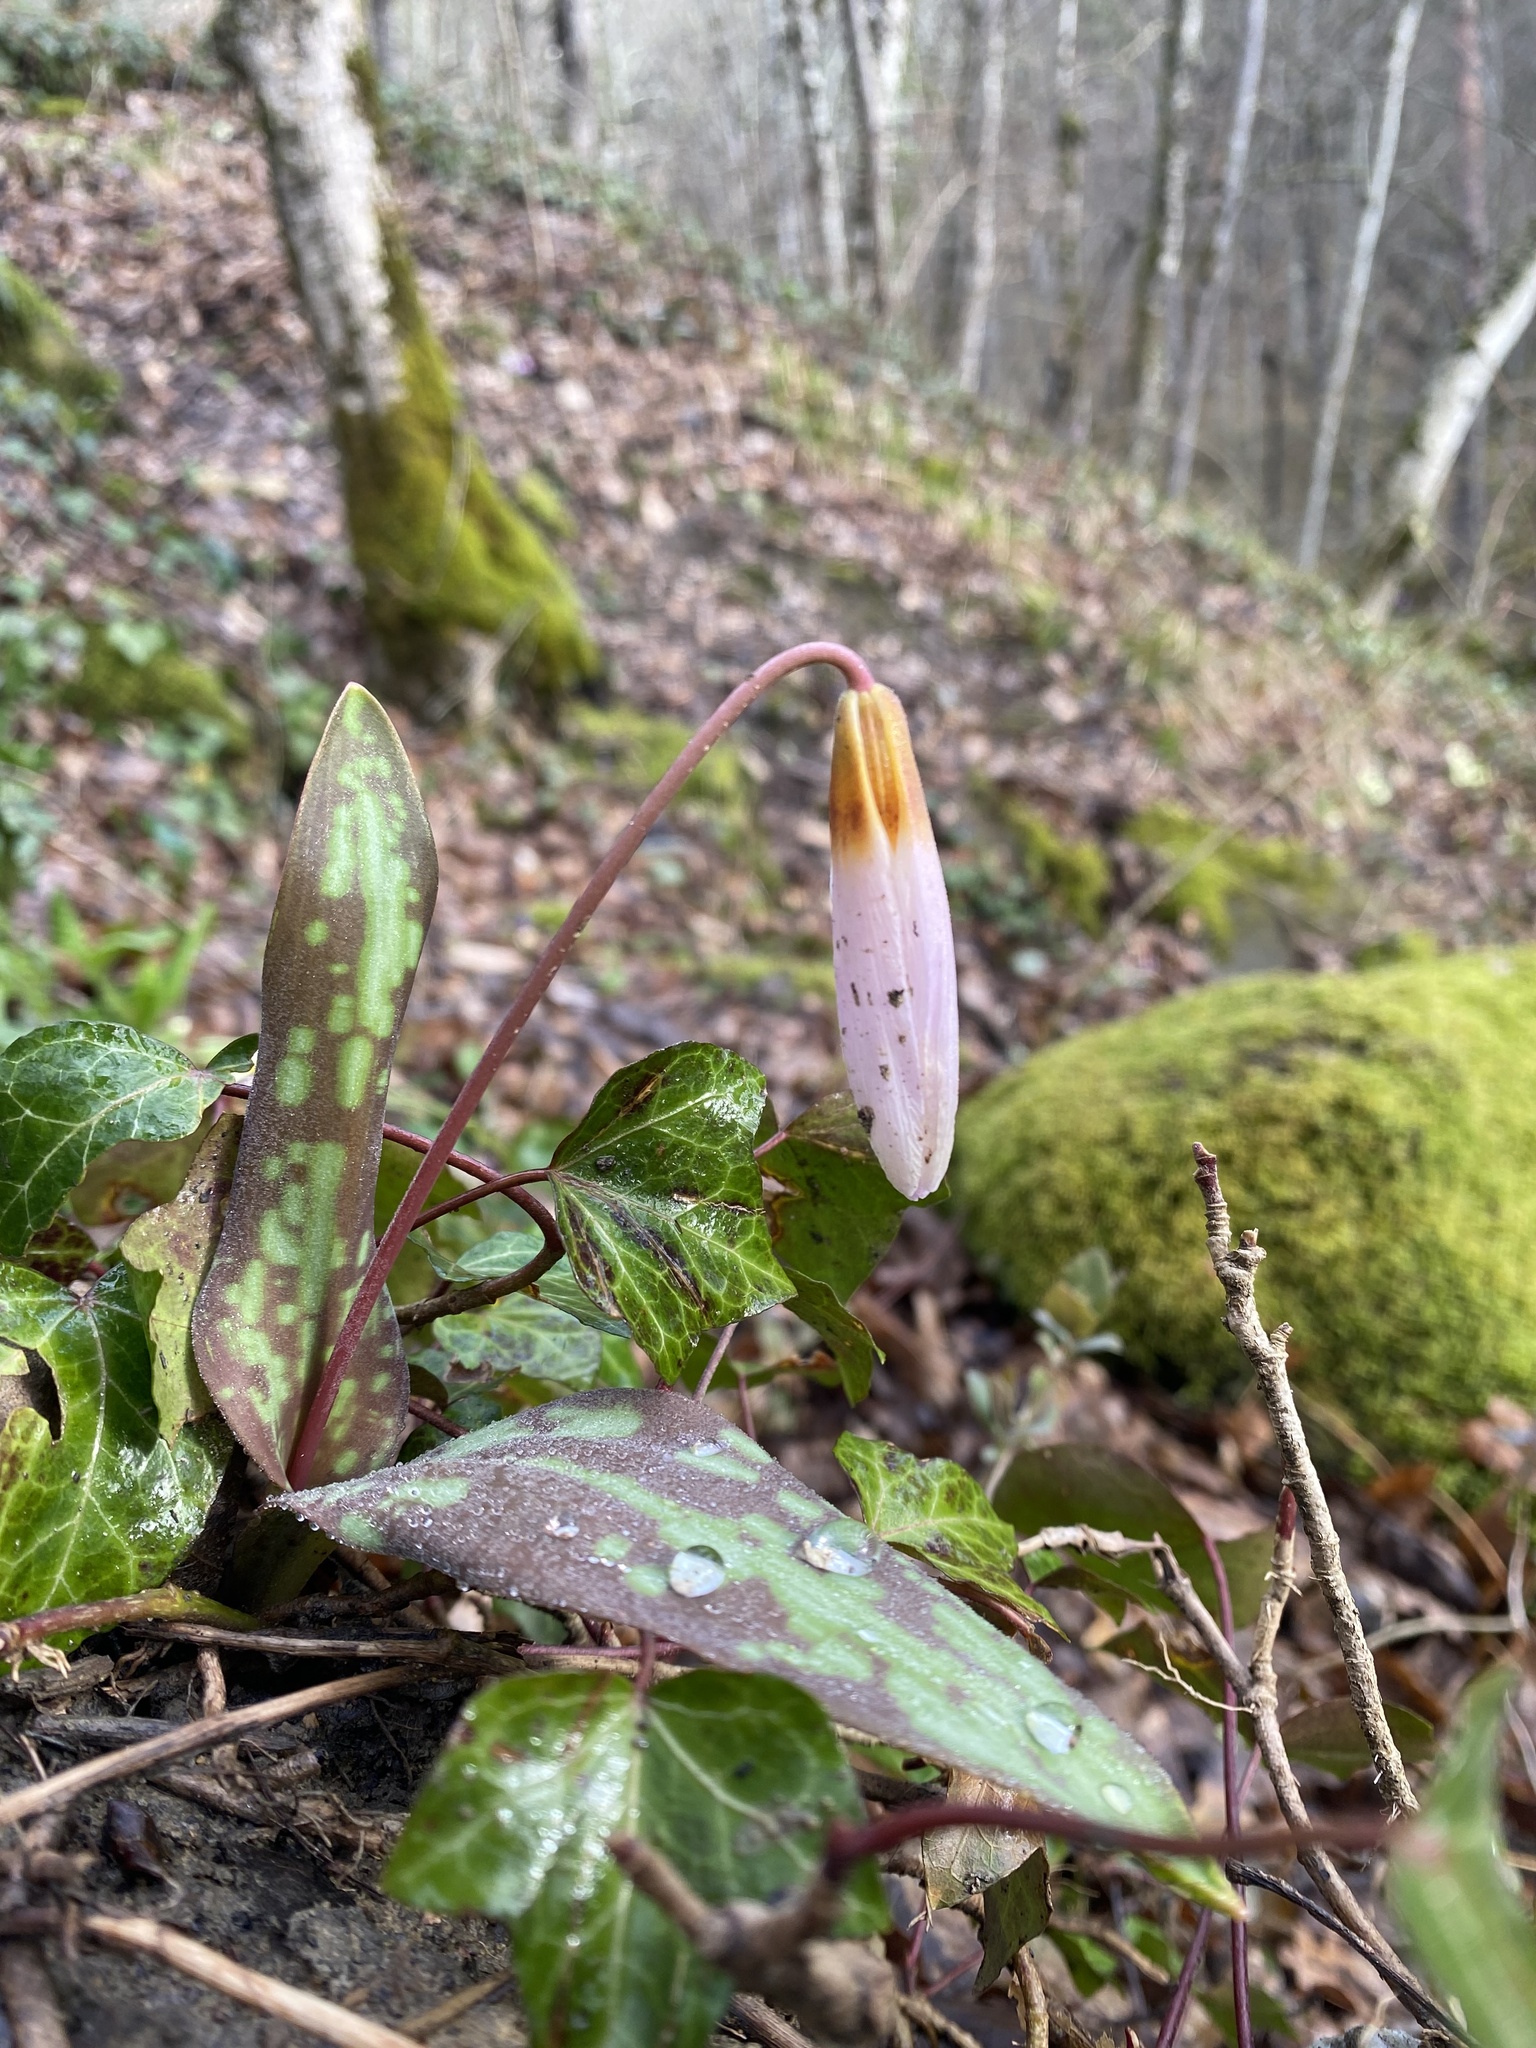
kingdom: Plantae
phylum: Tracheophyta
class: Liliopsida
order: Liliales
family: Liliaceae
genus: Erythronium
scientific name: Erythronium caucasicum
